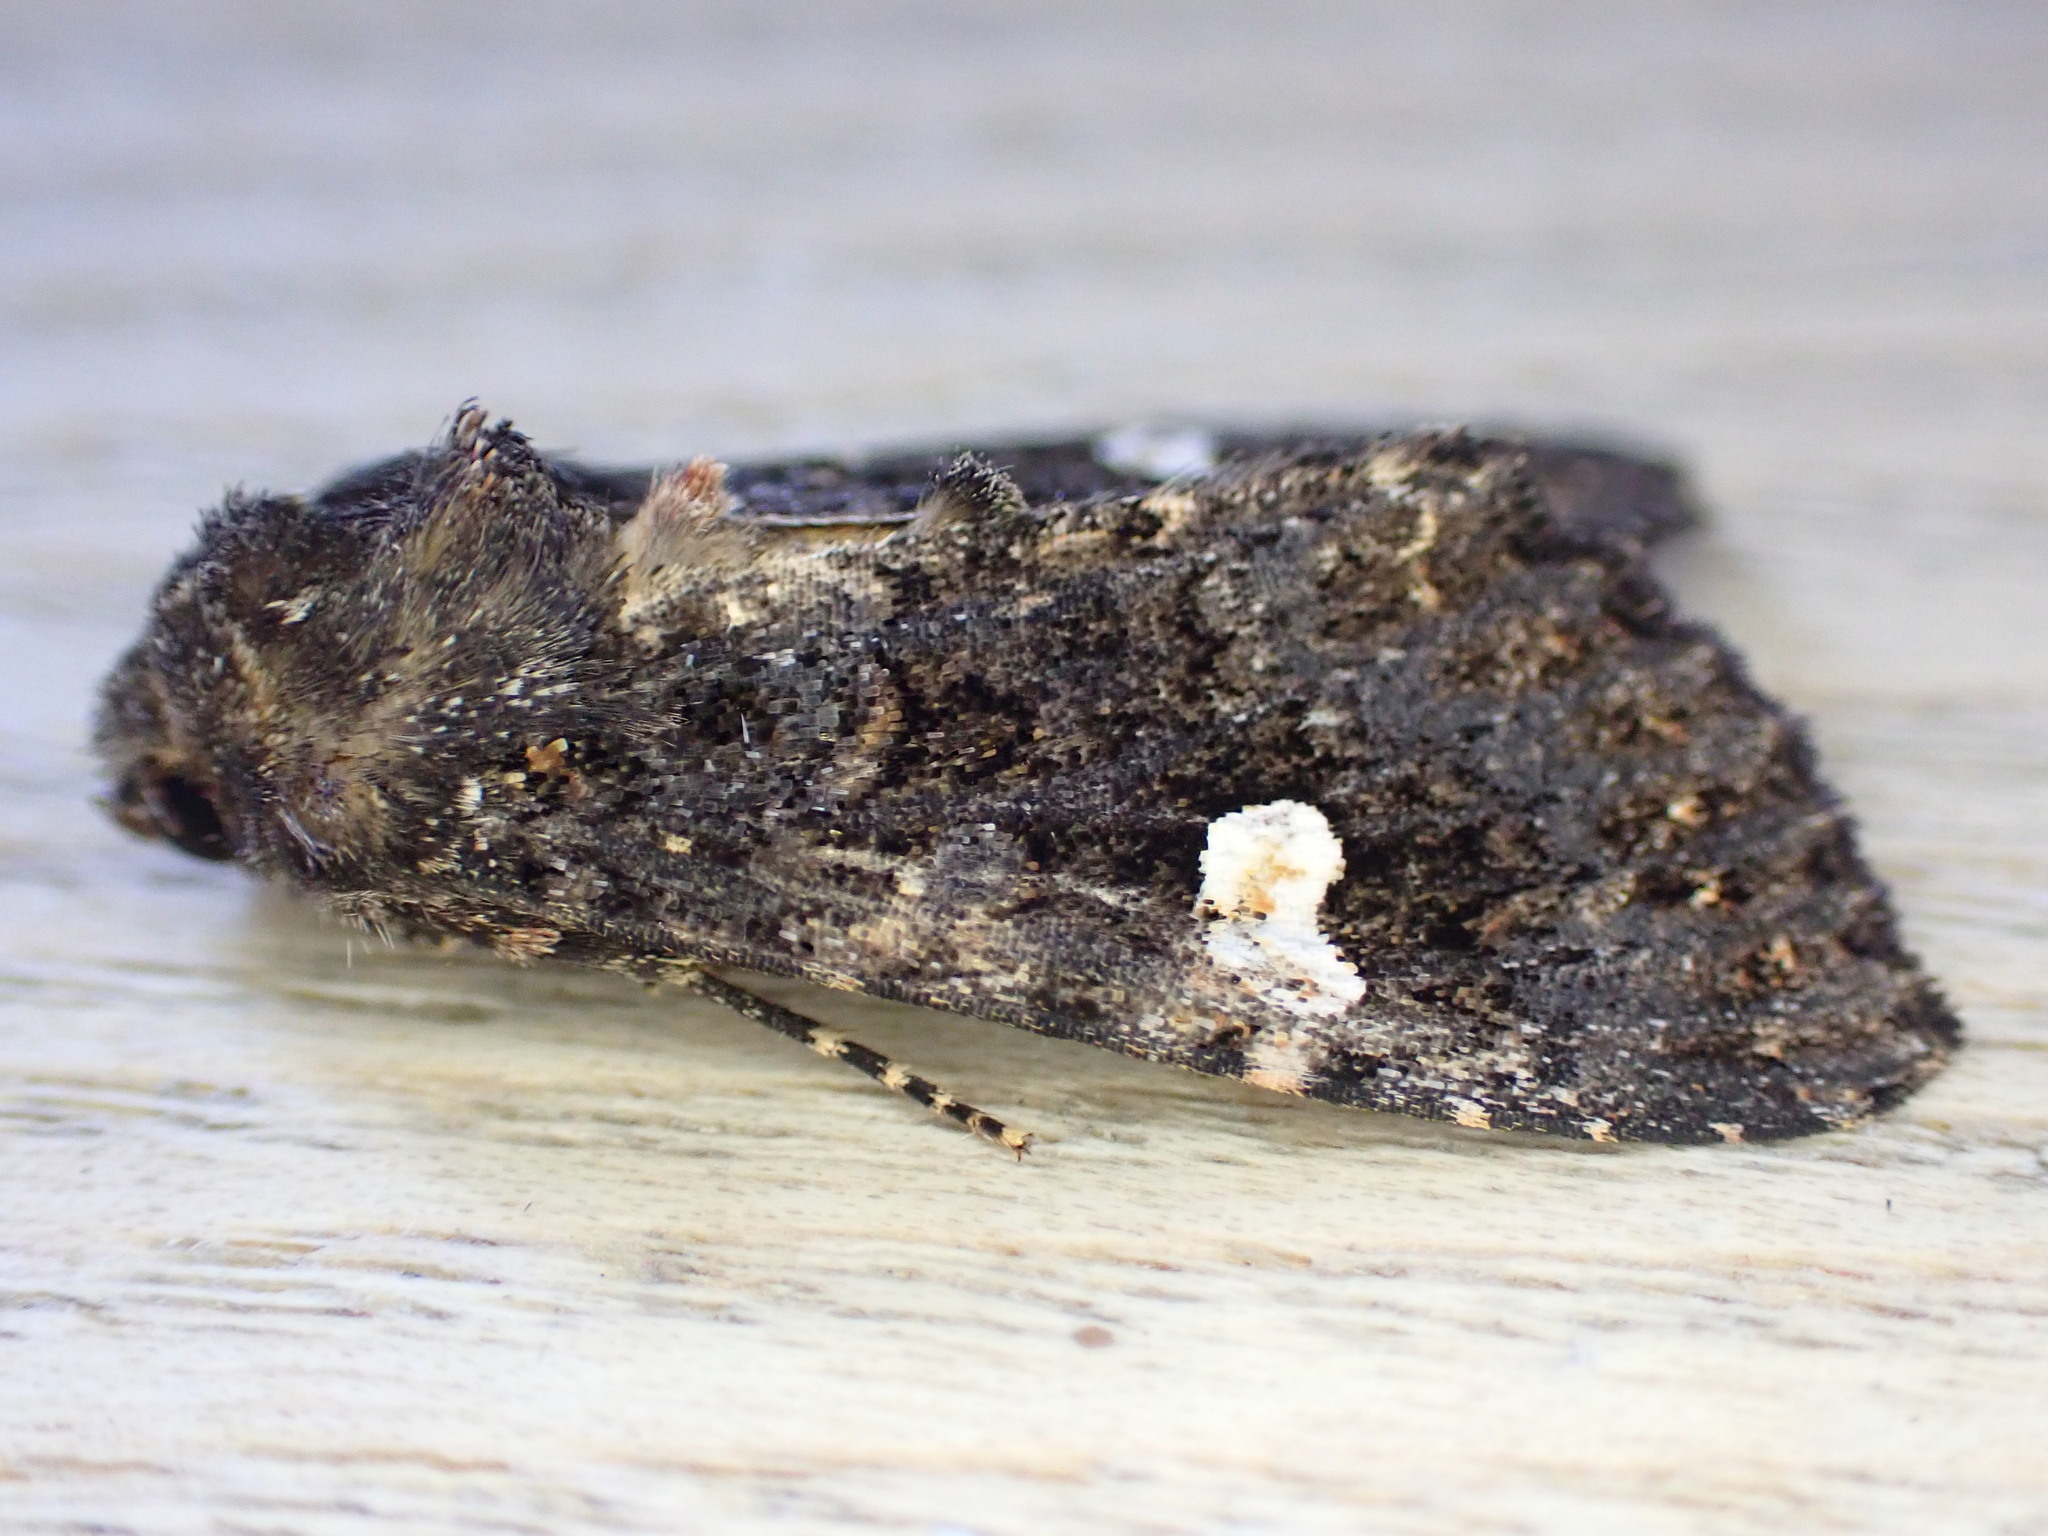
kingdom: Animalia
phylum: Arthropoda
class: Insecta
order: Lepidoptera
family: Noctuidae
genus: Melanchra
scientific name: Melanchra persicariae
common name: Dot moth
